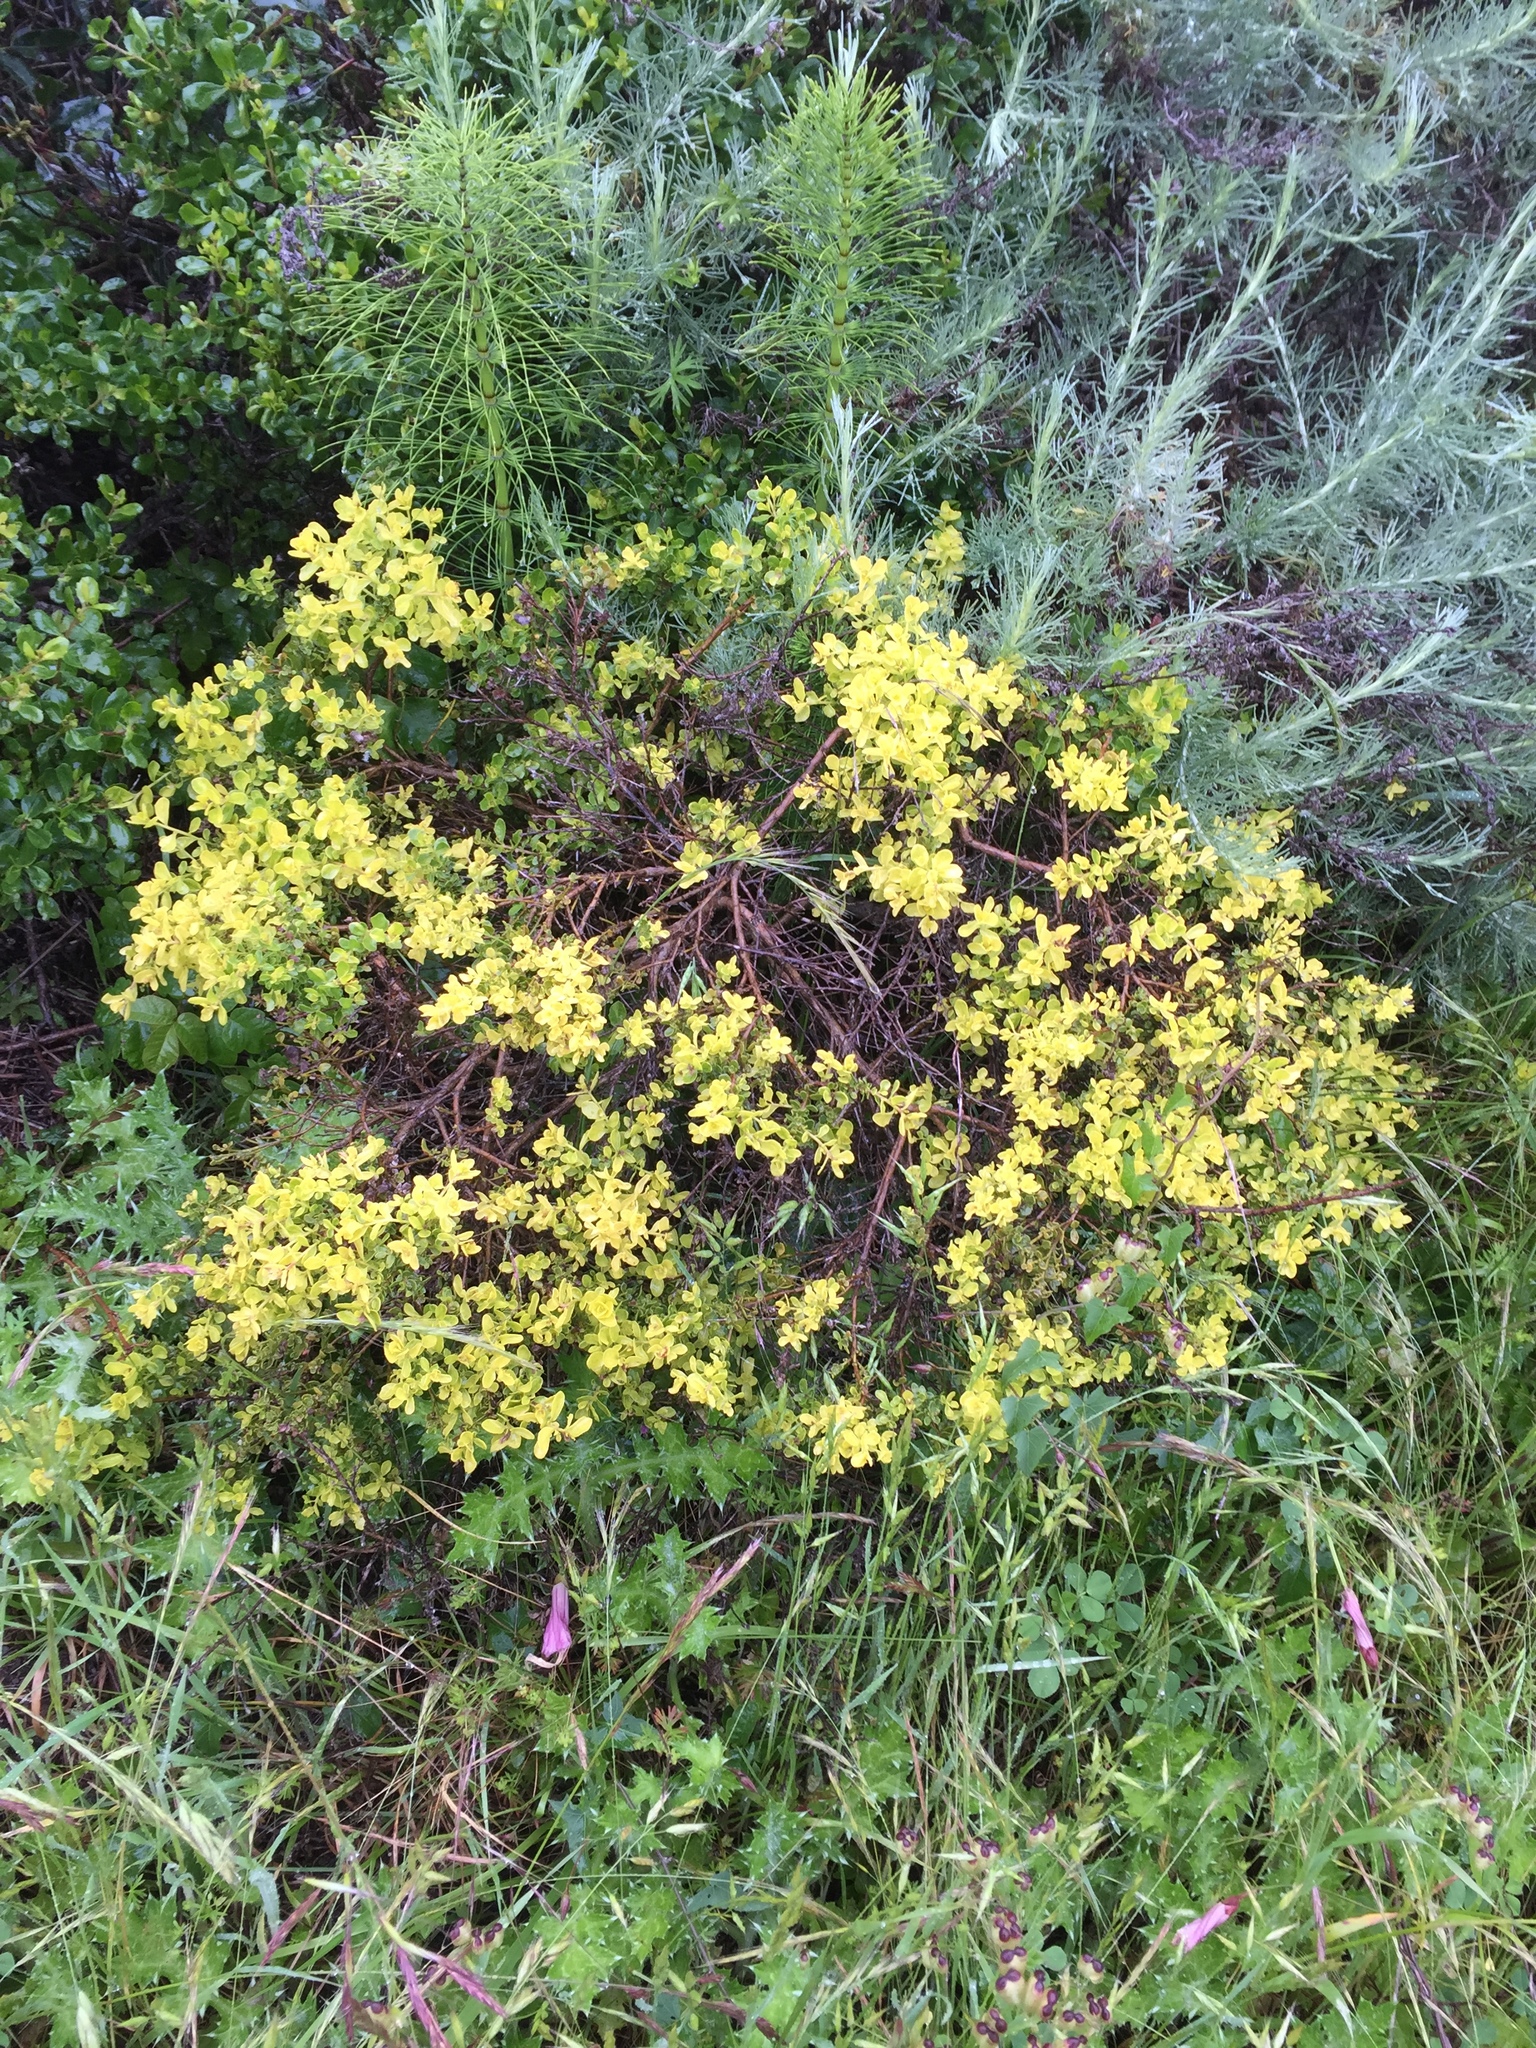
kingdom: Plantae
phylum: Tracheophyta
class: Magnoliopsida
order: Asterales
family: Asteraceae
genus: Baccharis
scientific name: Baccharis pilularis
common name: Coyotebrush
